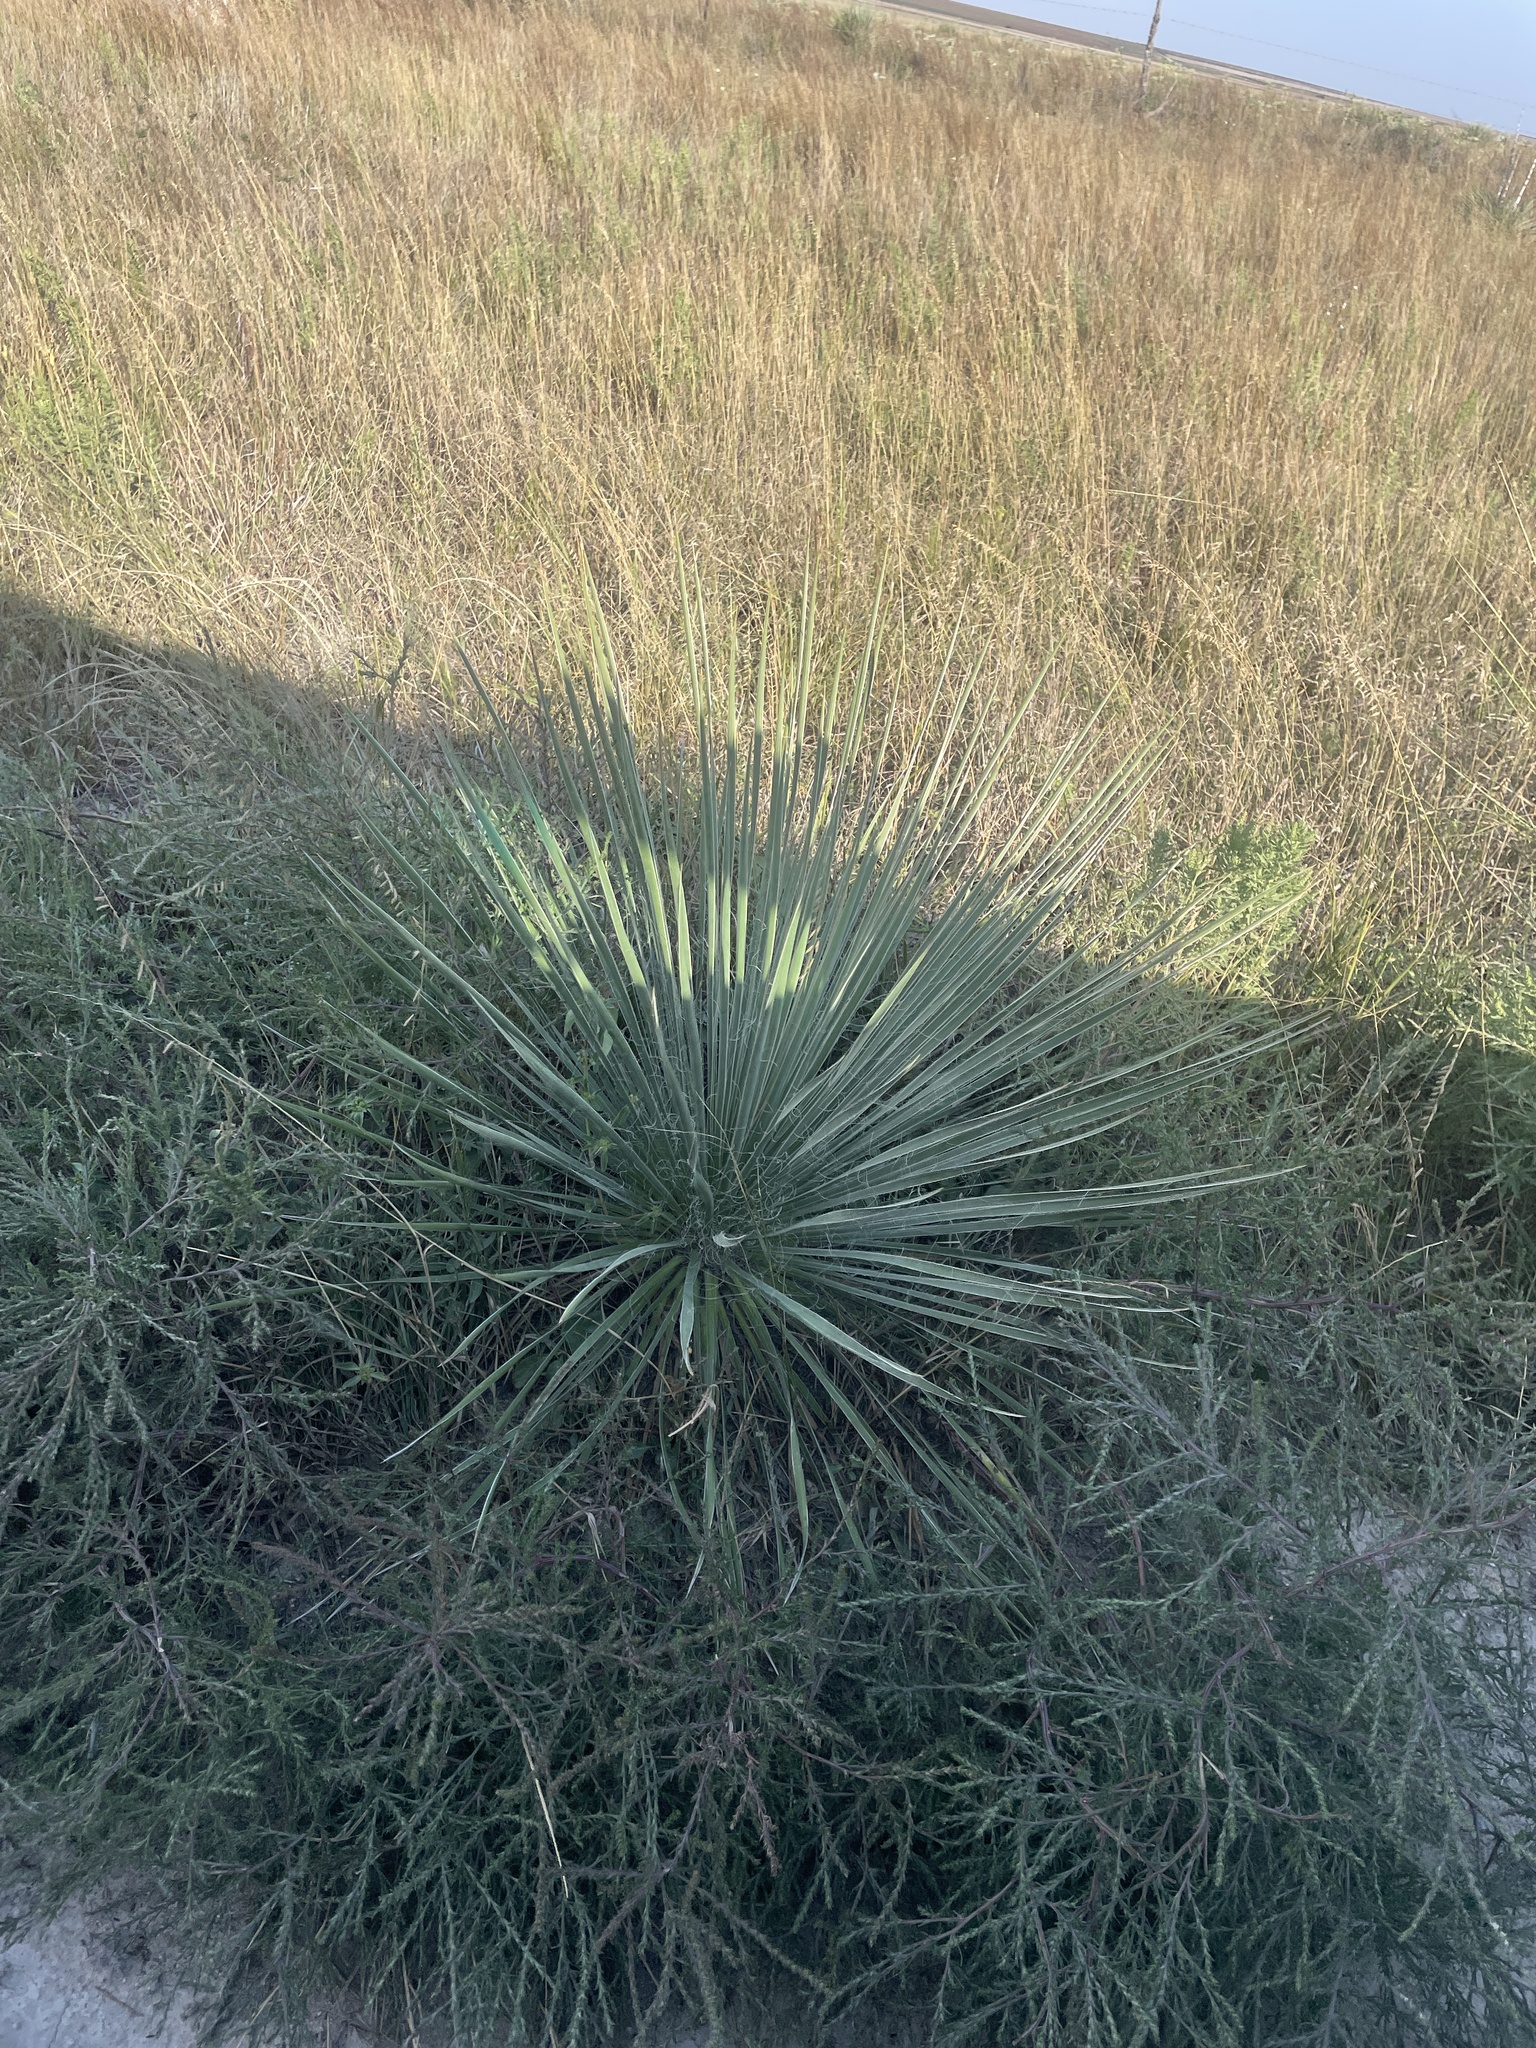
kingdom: Plantae
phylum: Tracheophyta
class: Liliopsida
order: Asparagales
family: Asparagaceae
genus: Yucca
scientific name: Yucca glauca
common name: Great plains yucca
